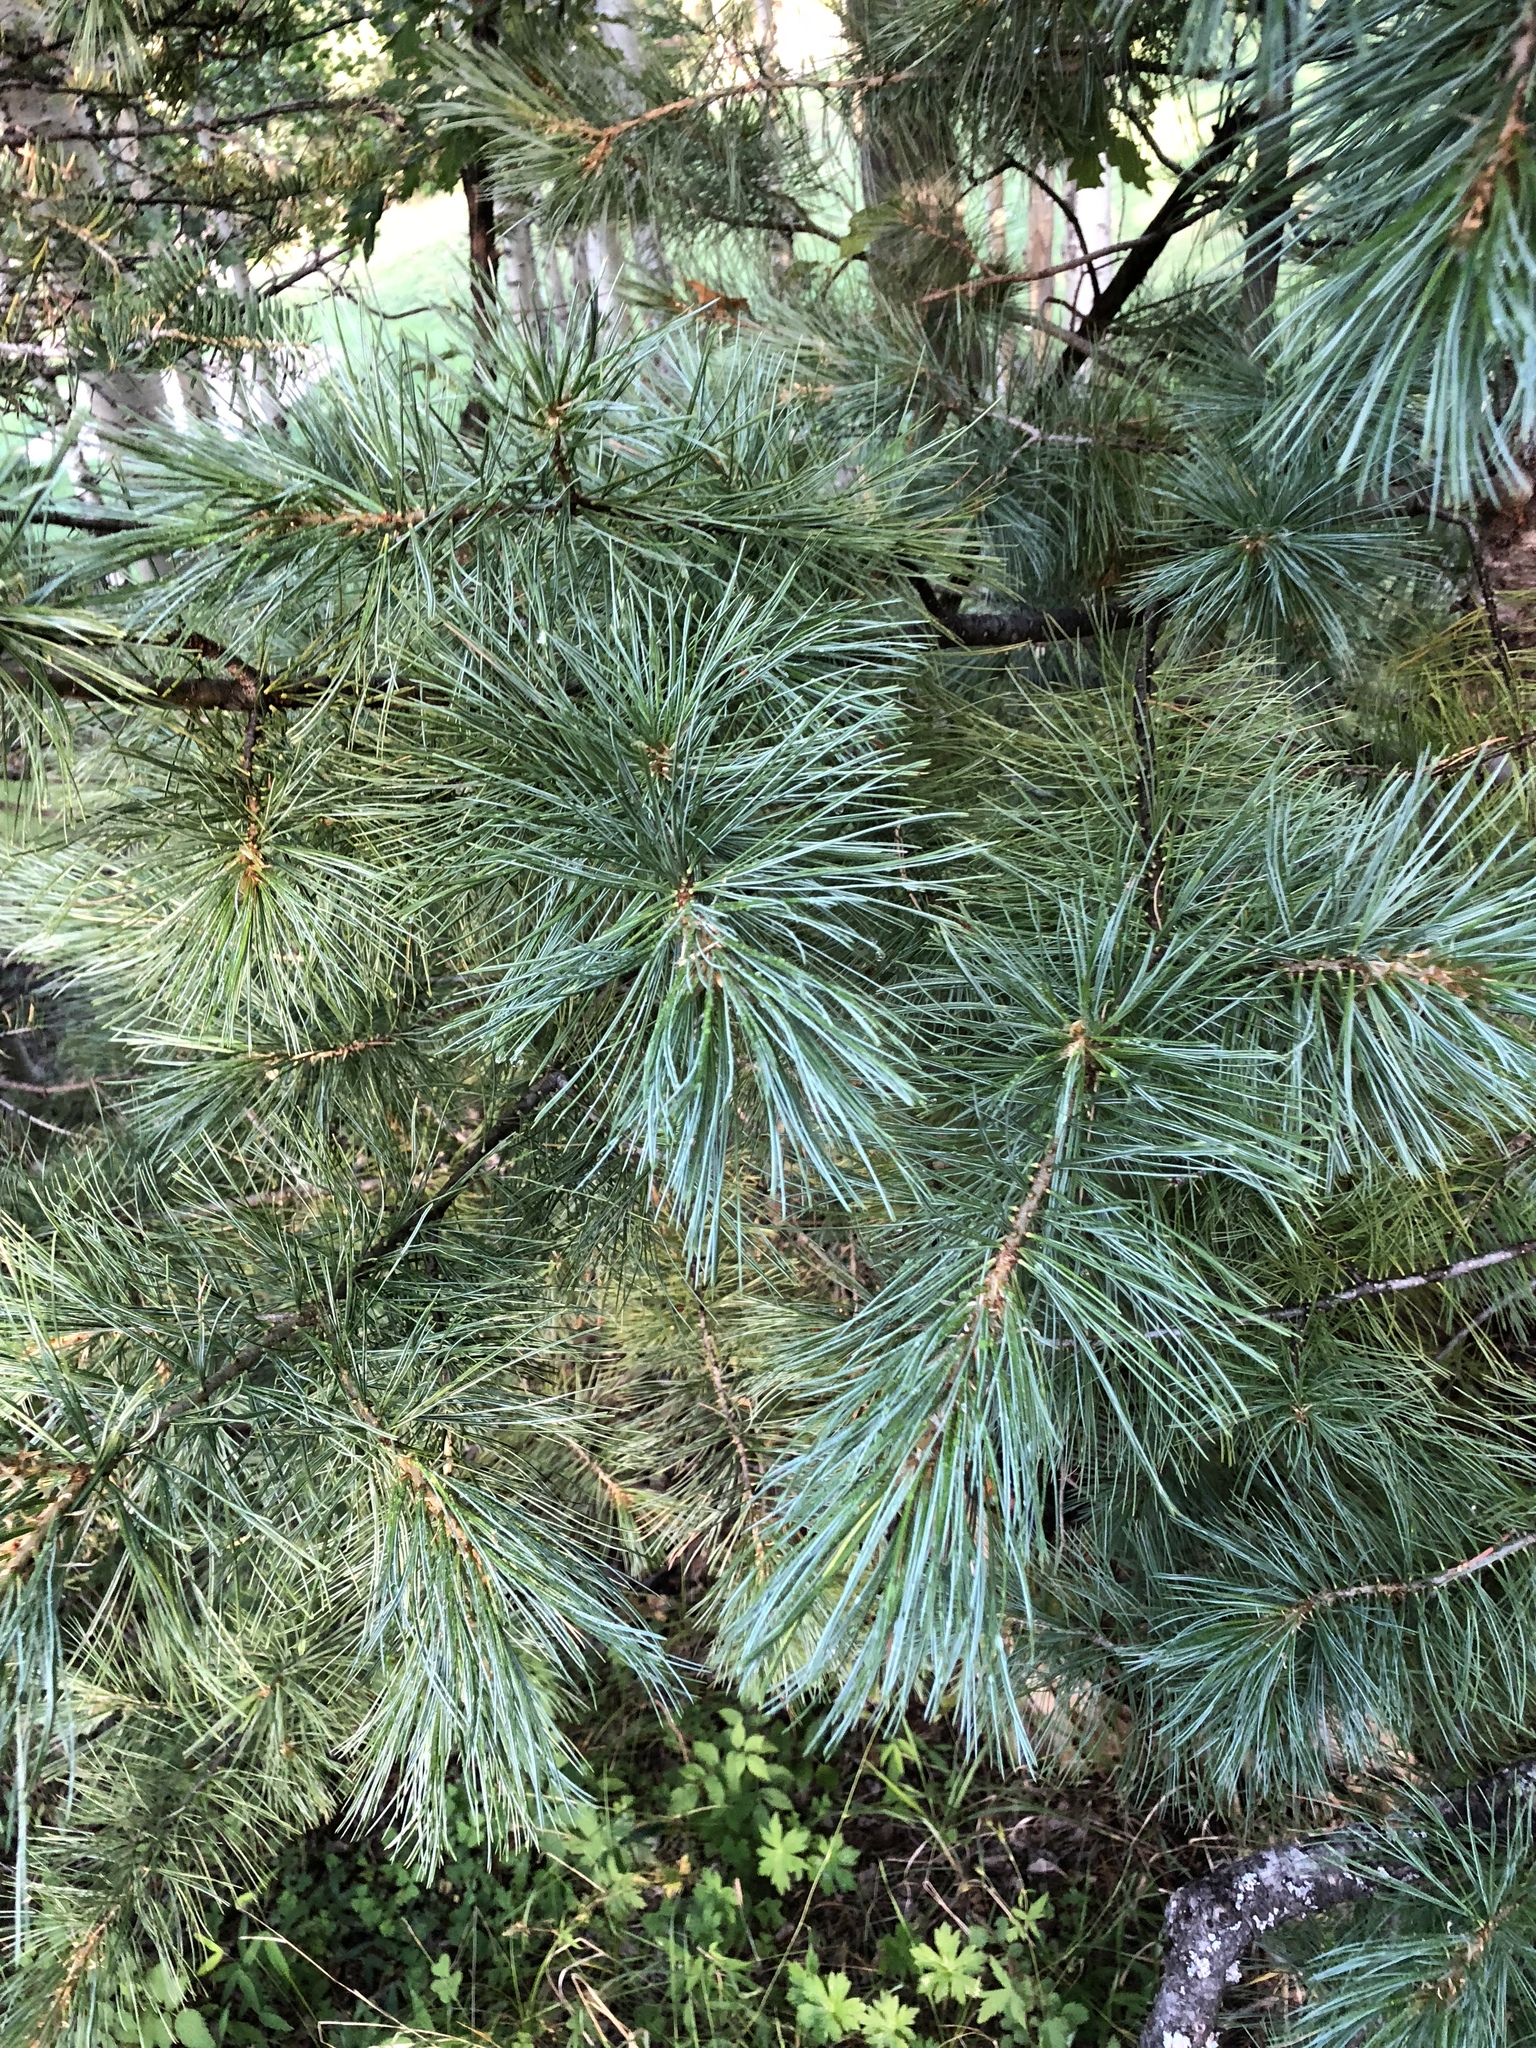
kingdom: Plantae
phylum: Tracheophyta
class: Pinopsida
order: Pinales
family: Pinaceae
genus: Pinus
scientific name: Pinus strobiformis
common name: Southwestern white pine
